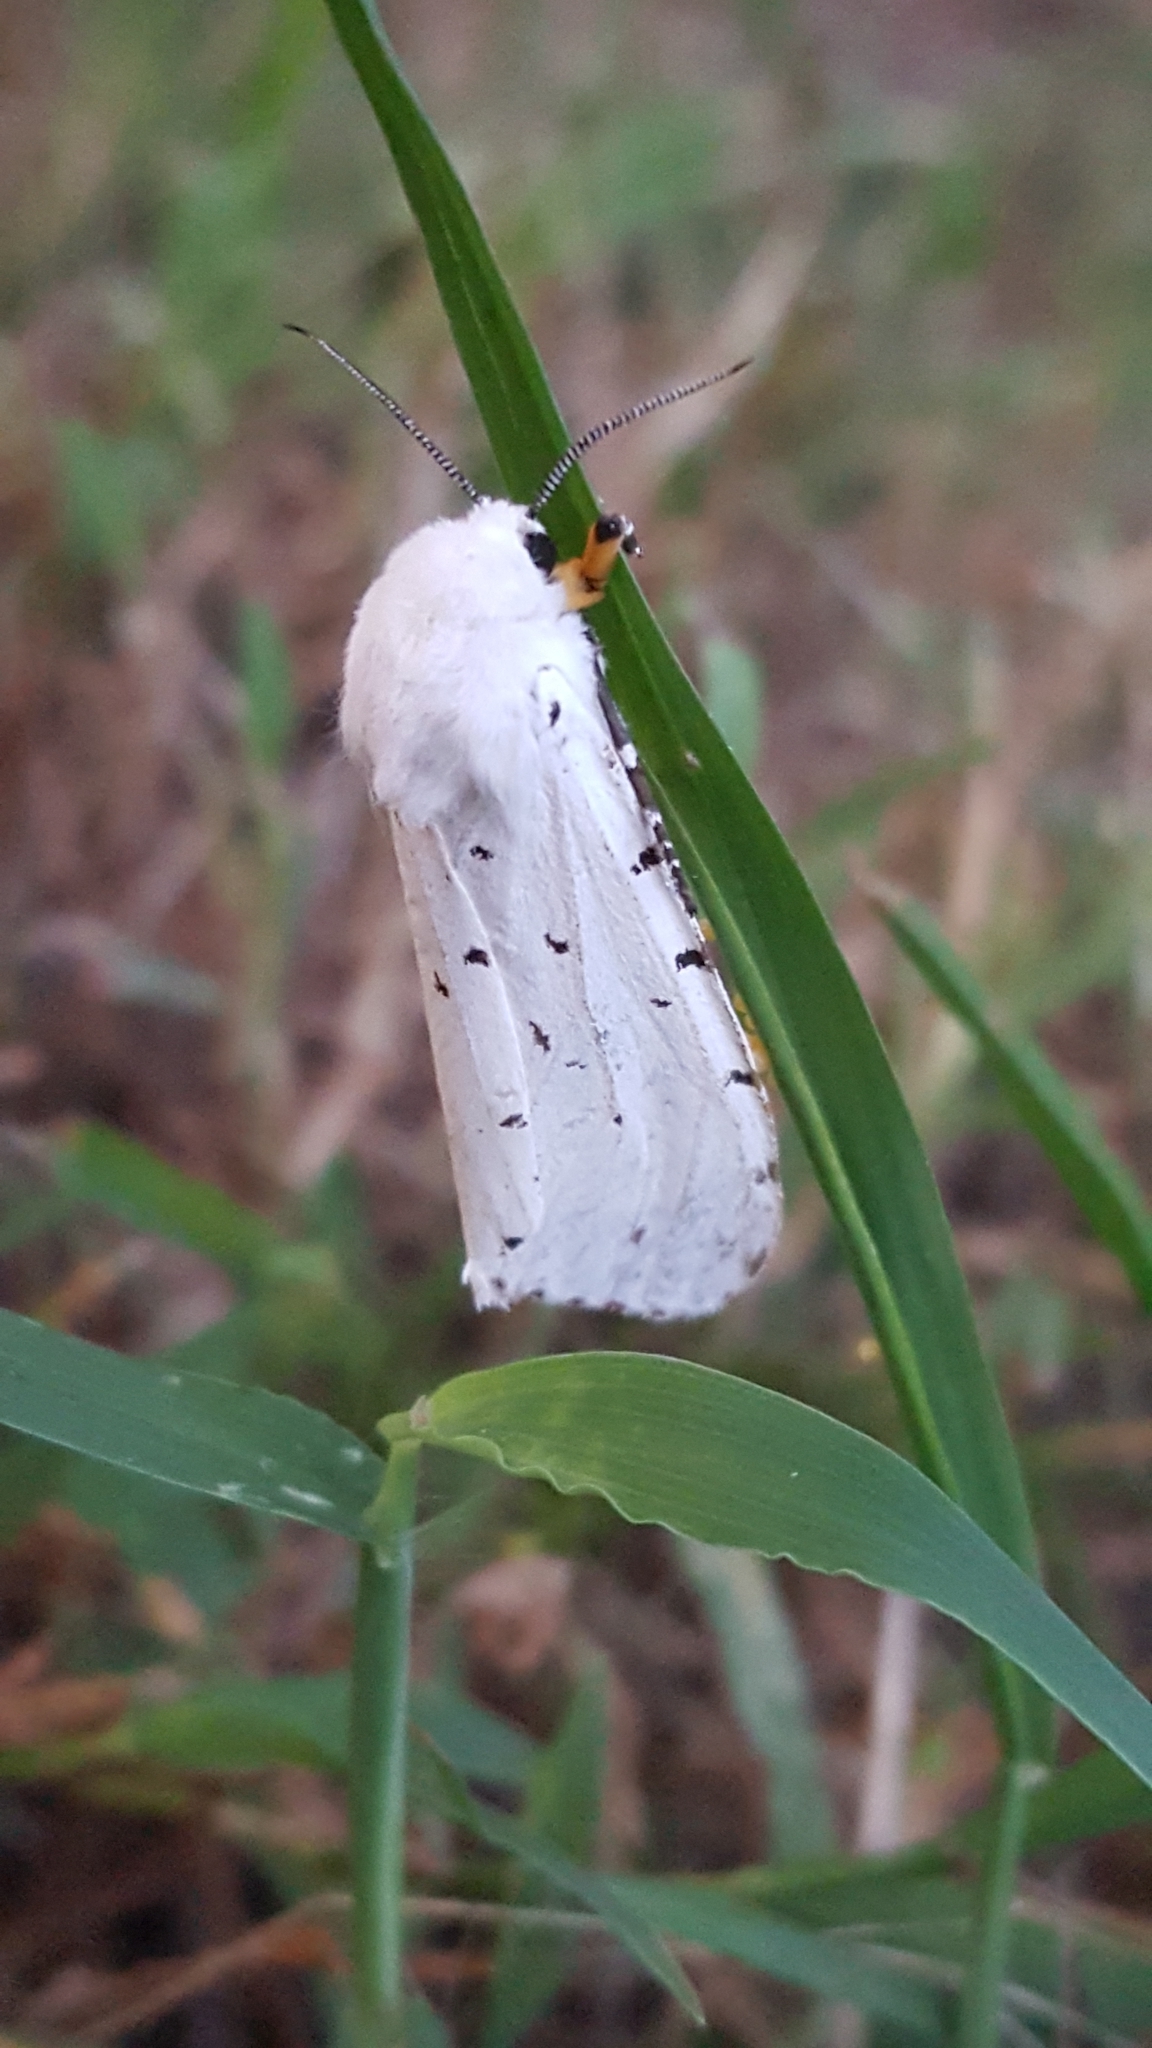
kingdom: Animalia
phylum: Arthropoda
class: Insecta
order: Lepidoptera
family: Erebidae
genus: Estigmene
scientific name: Estigmene acrea
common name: Salt marsh moth
